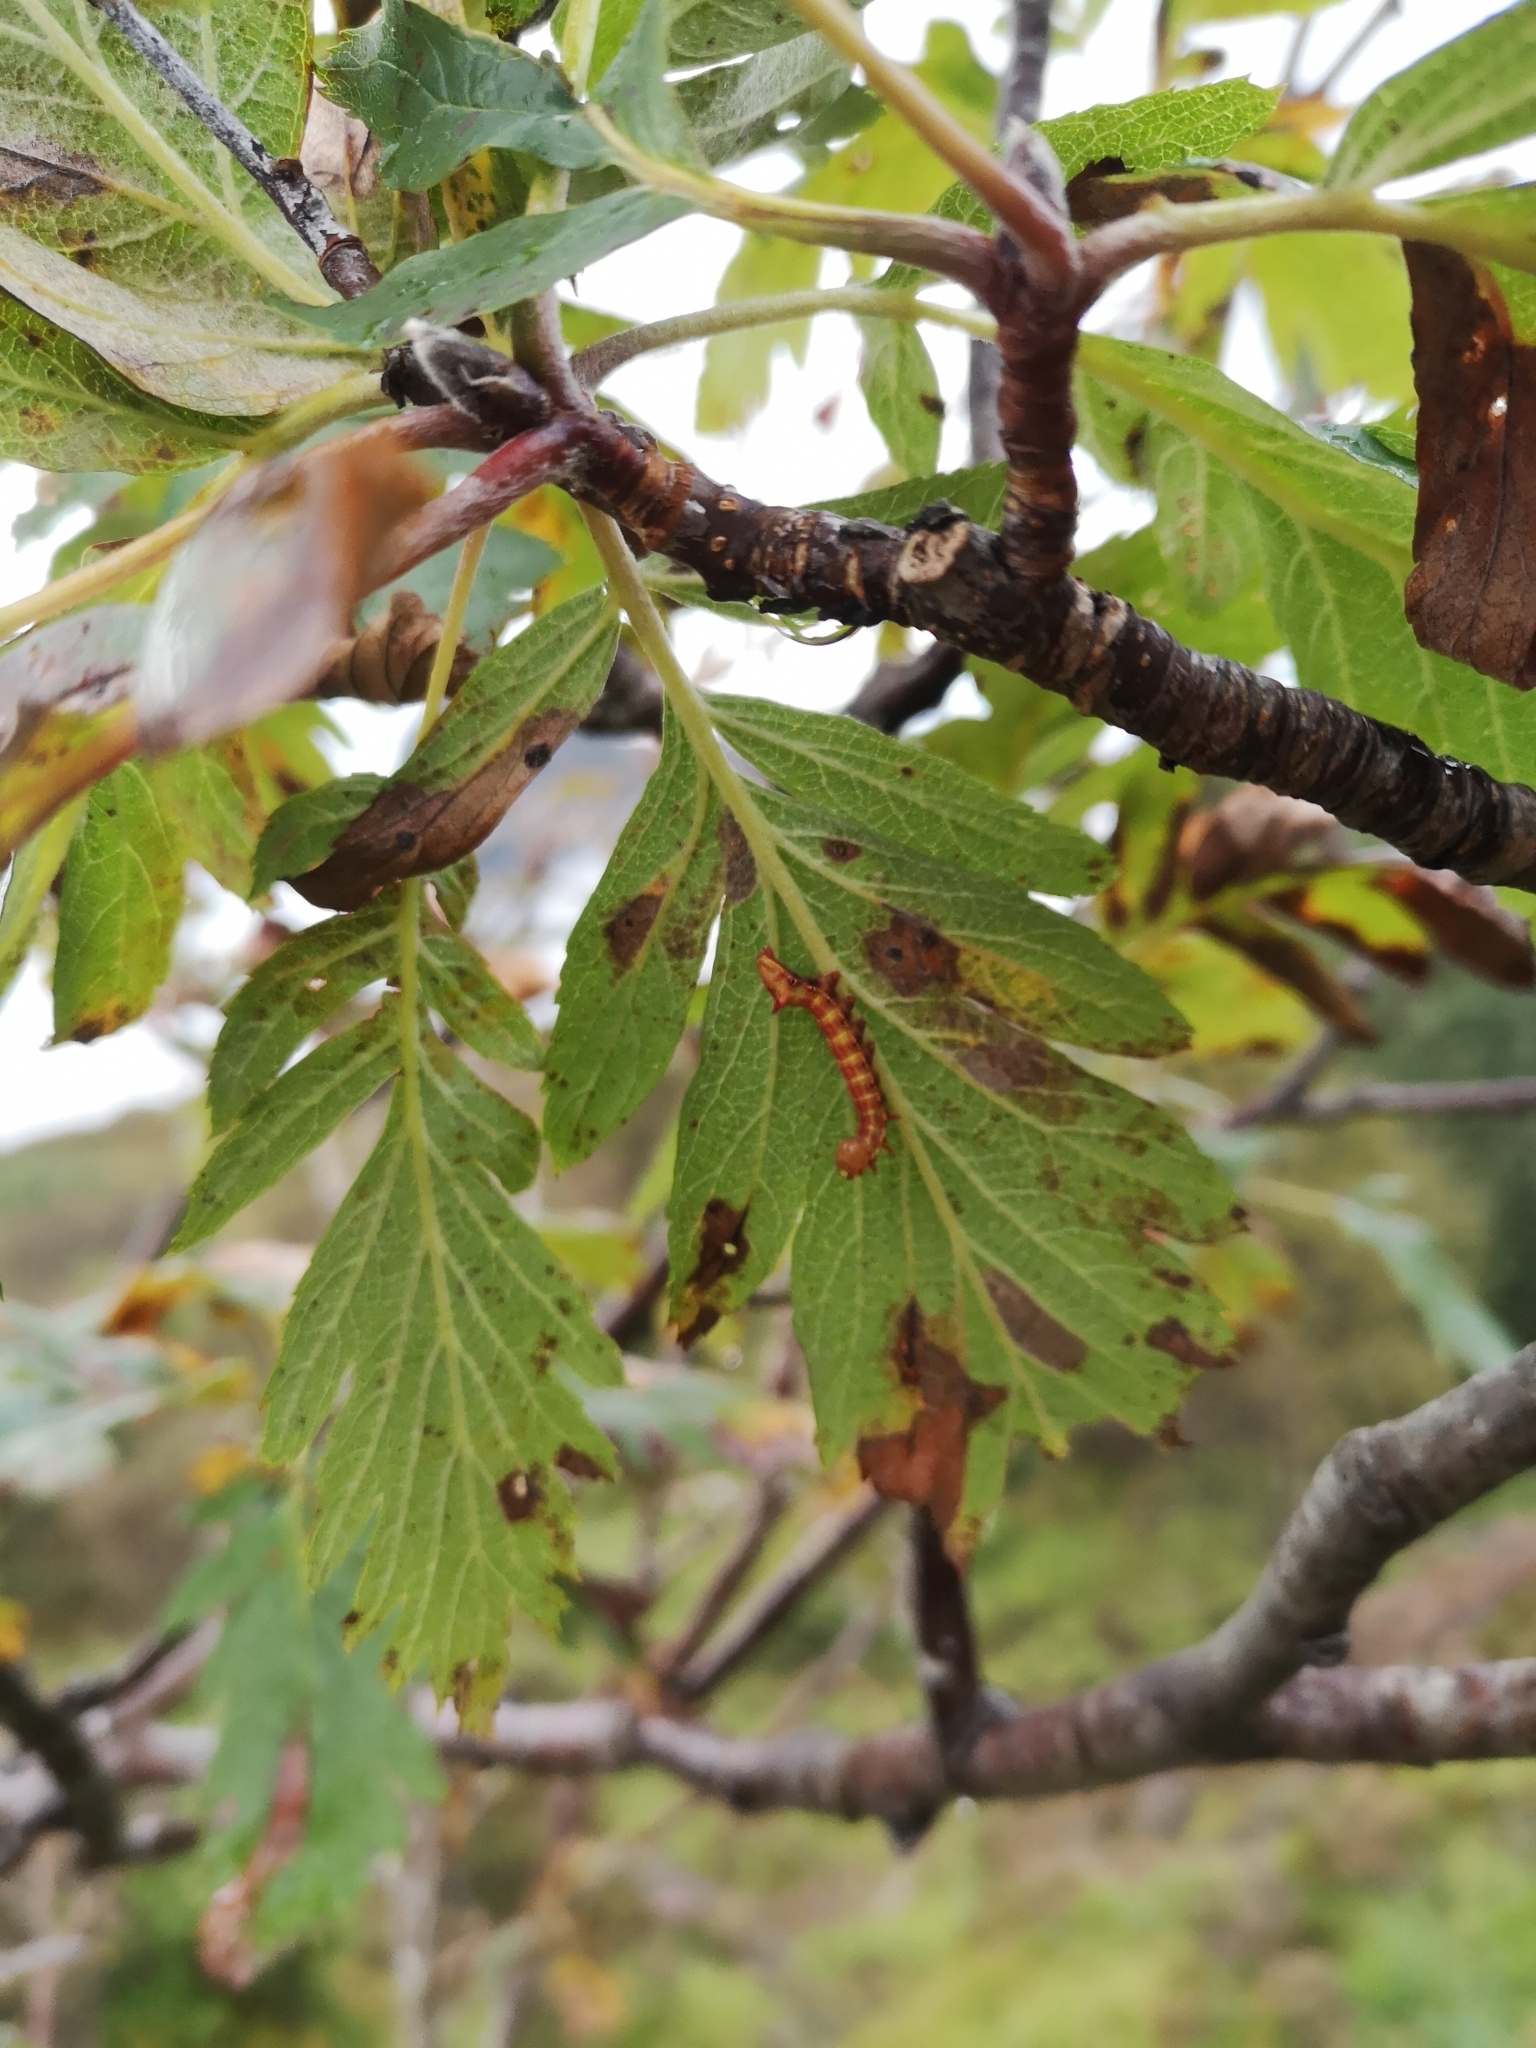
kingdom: Animalia
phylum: Arthropoda
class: Insecta
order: Lepidoptera
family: Notodontidae
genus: Ptilodon
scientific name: Ptilodon capucina
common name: Coxcomb prominent
